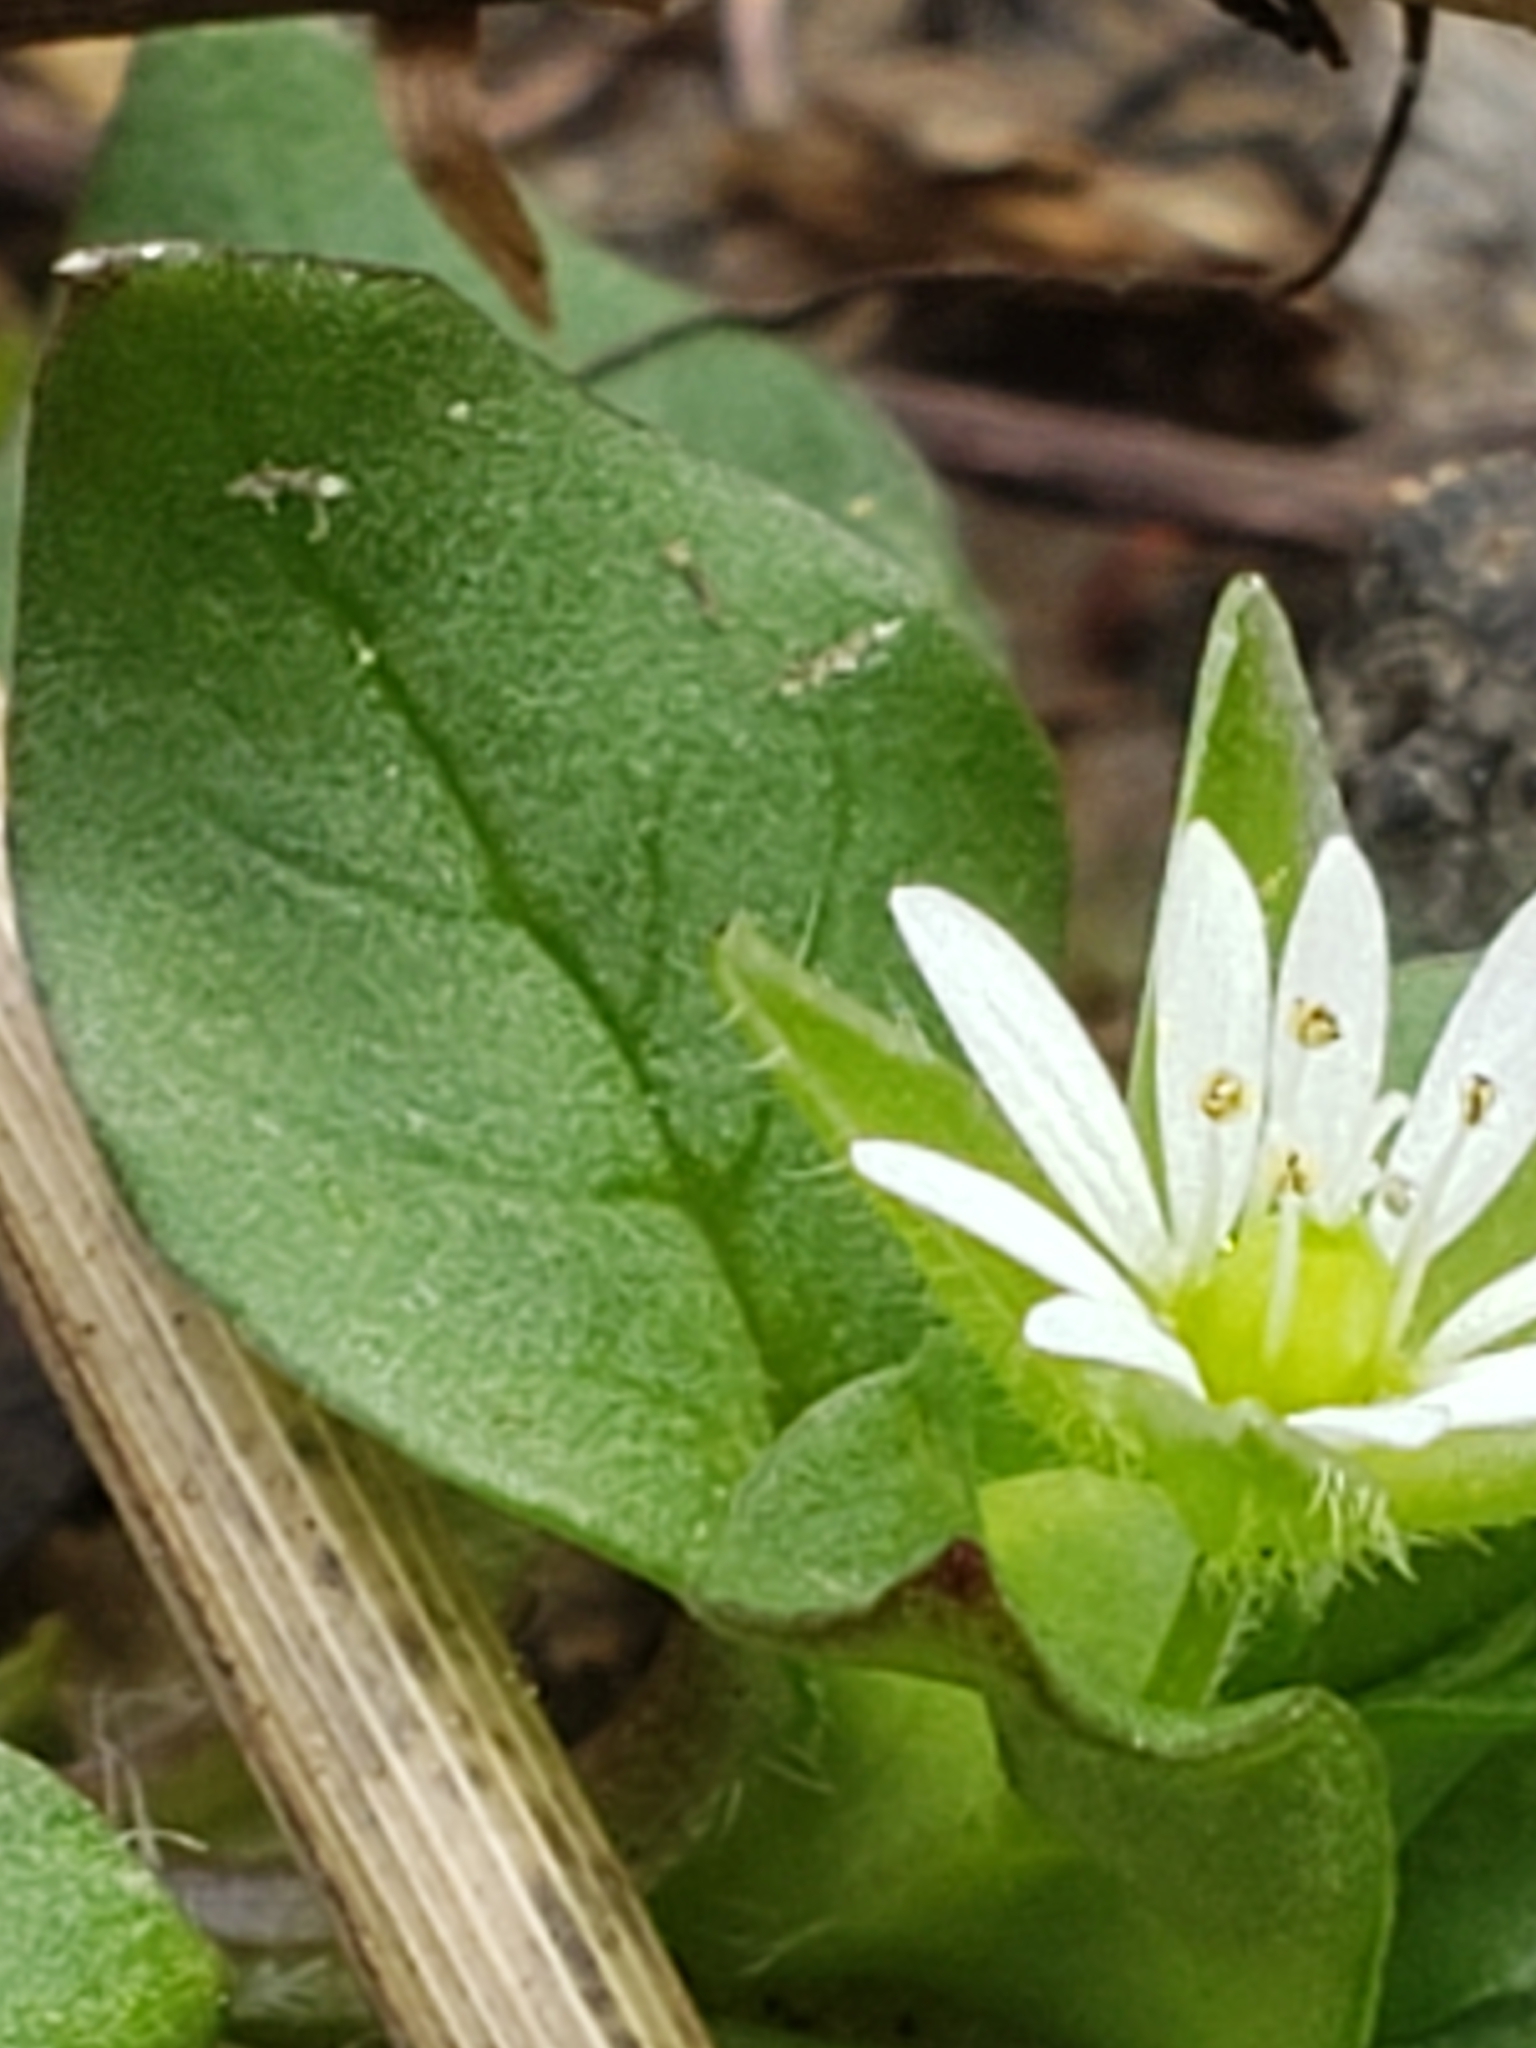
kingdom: Plantae
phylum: Tracheophyta
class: Magnoliopsida
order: Caryophyllales
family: Caryophyllaceae
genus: Stellaria
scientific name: Stellaria media
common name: Common chickweed
